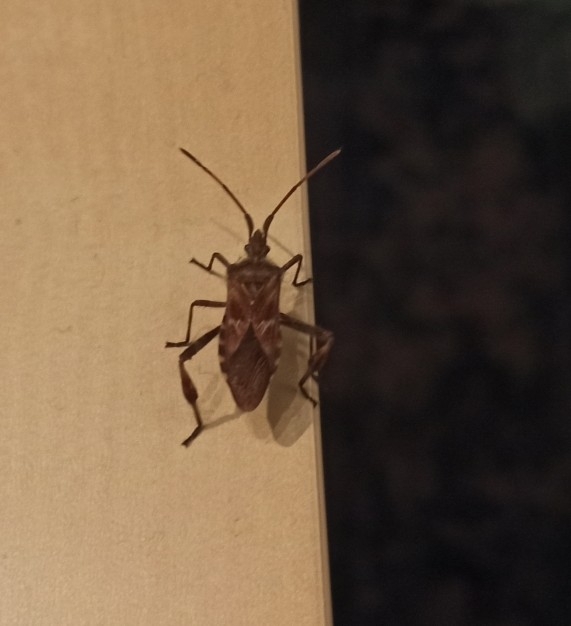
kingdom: Animalia
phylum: Arthropoda
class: Insecta
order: Hemiptera
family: Coreidae
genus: Leptoglossus
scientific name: Leptoglossus occidentalis
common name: Western conifer-seed bug
